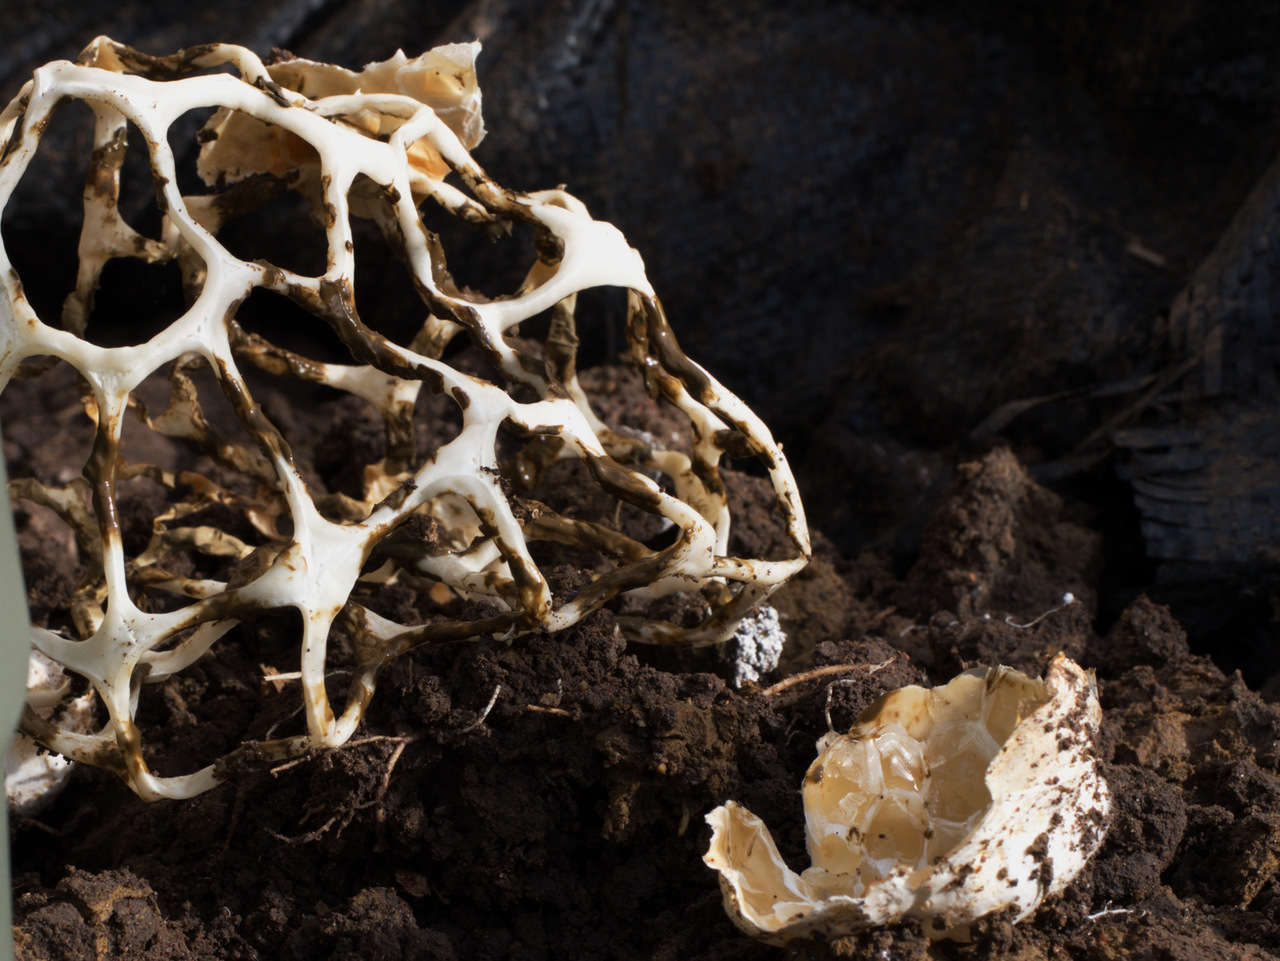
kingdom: Fungi
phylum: Basidiomycota
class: Agaricomycetes
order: Phallales
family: Phallaceae
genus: Ileodictyon
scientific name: Ileodictyon gracile
